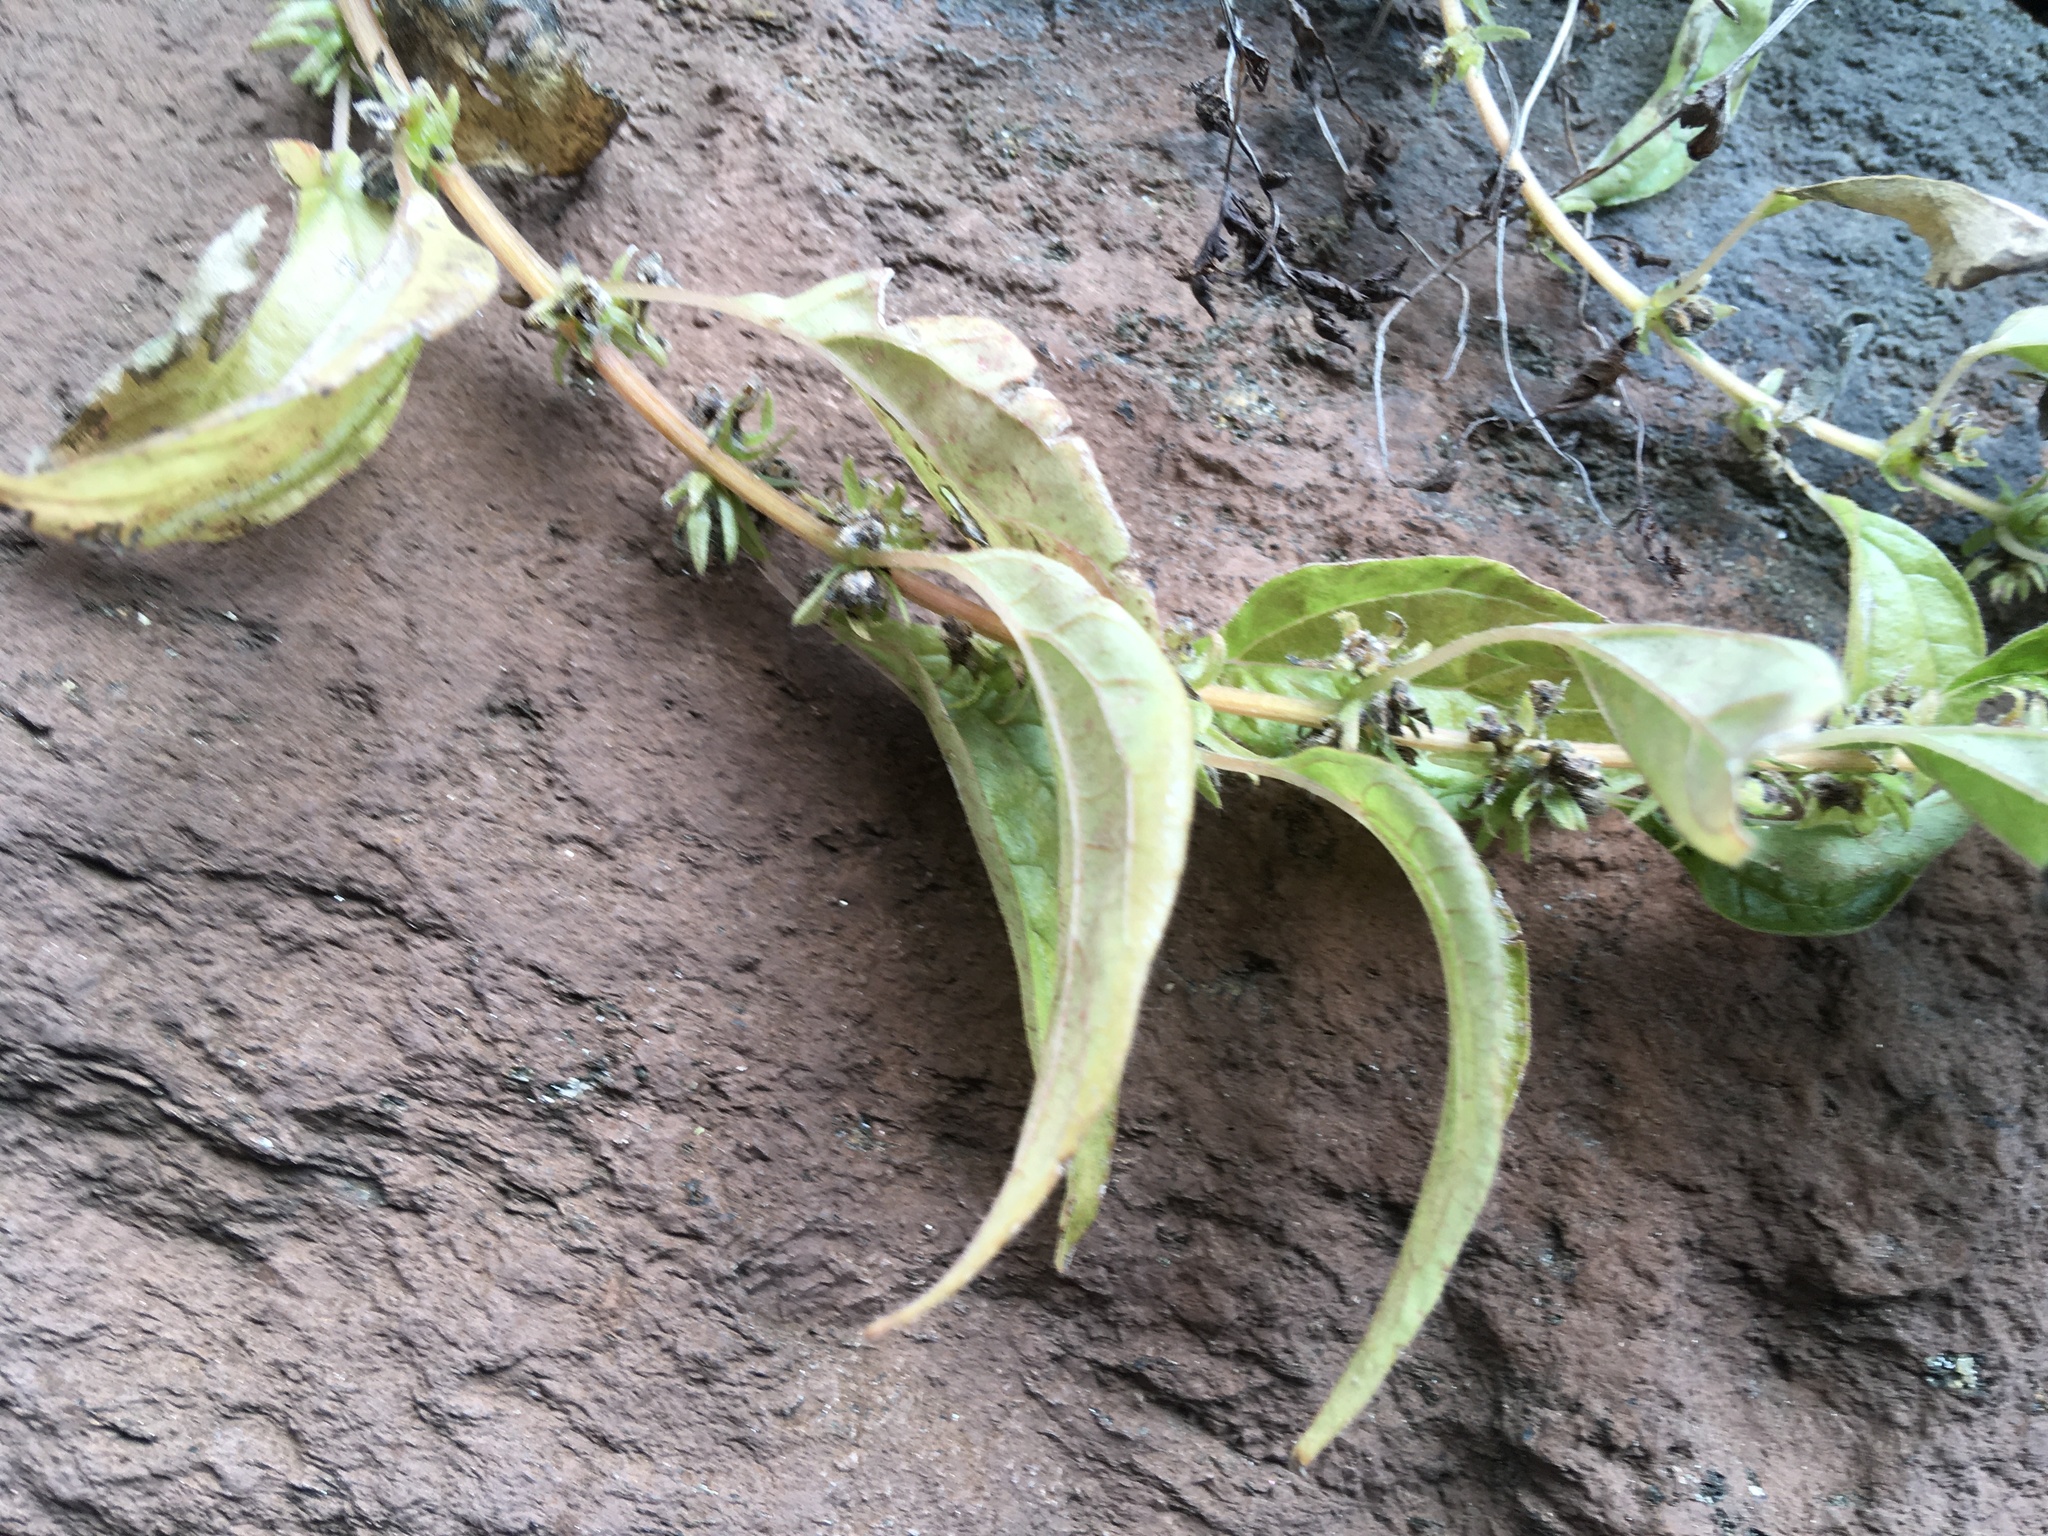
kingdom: Plantae
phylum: Tracheophyta
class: Magnoliopsida
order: Rosales
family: Urticaceae
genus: Parietaria
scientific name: Parietaria pensylvanica
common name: Pennsylvania pellitory
